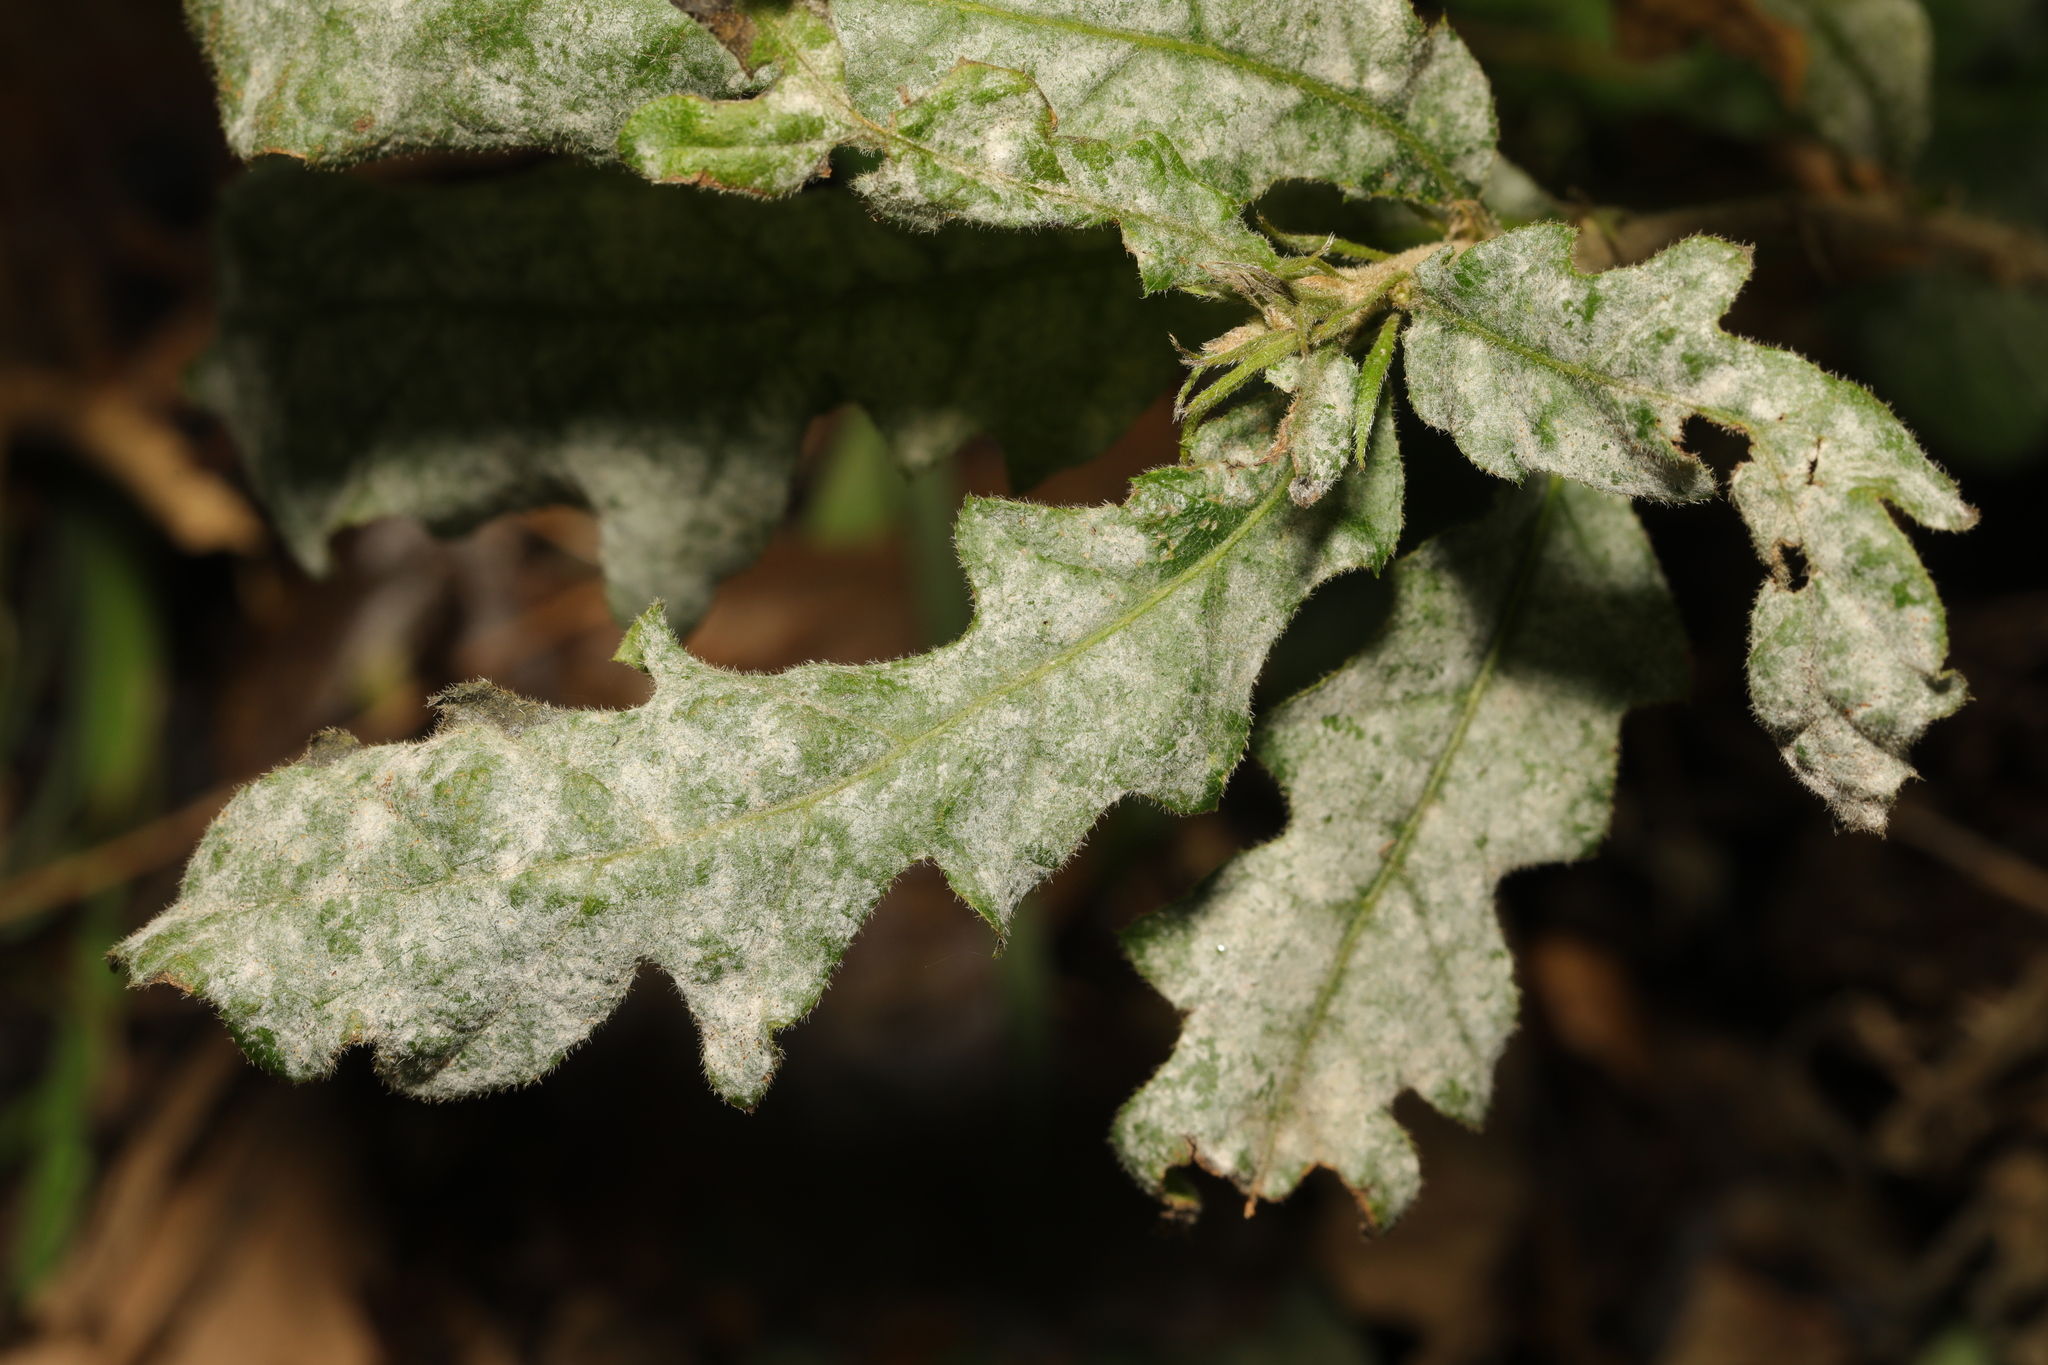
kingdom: Fungi
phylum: Ascomycota
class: Leotiomycetes
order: Helotiales
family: Erysiphaceae
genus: Erysiphe
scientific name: Erysiphe alphitoides
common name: Oak mildew
